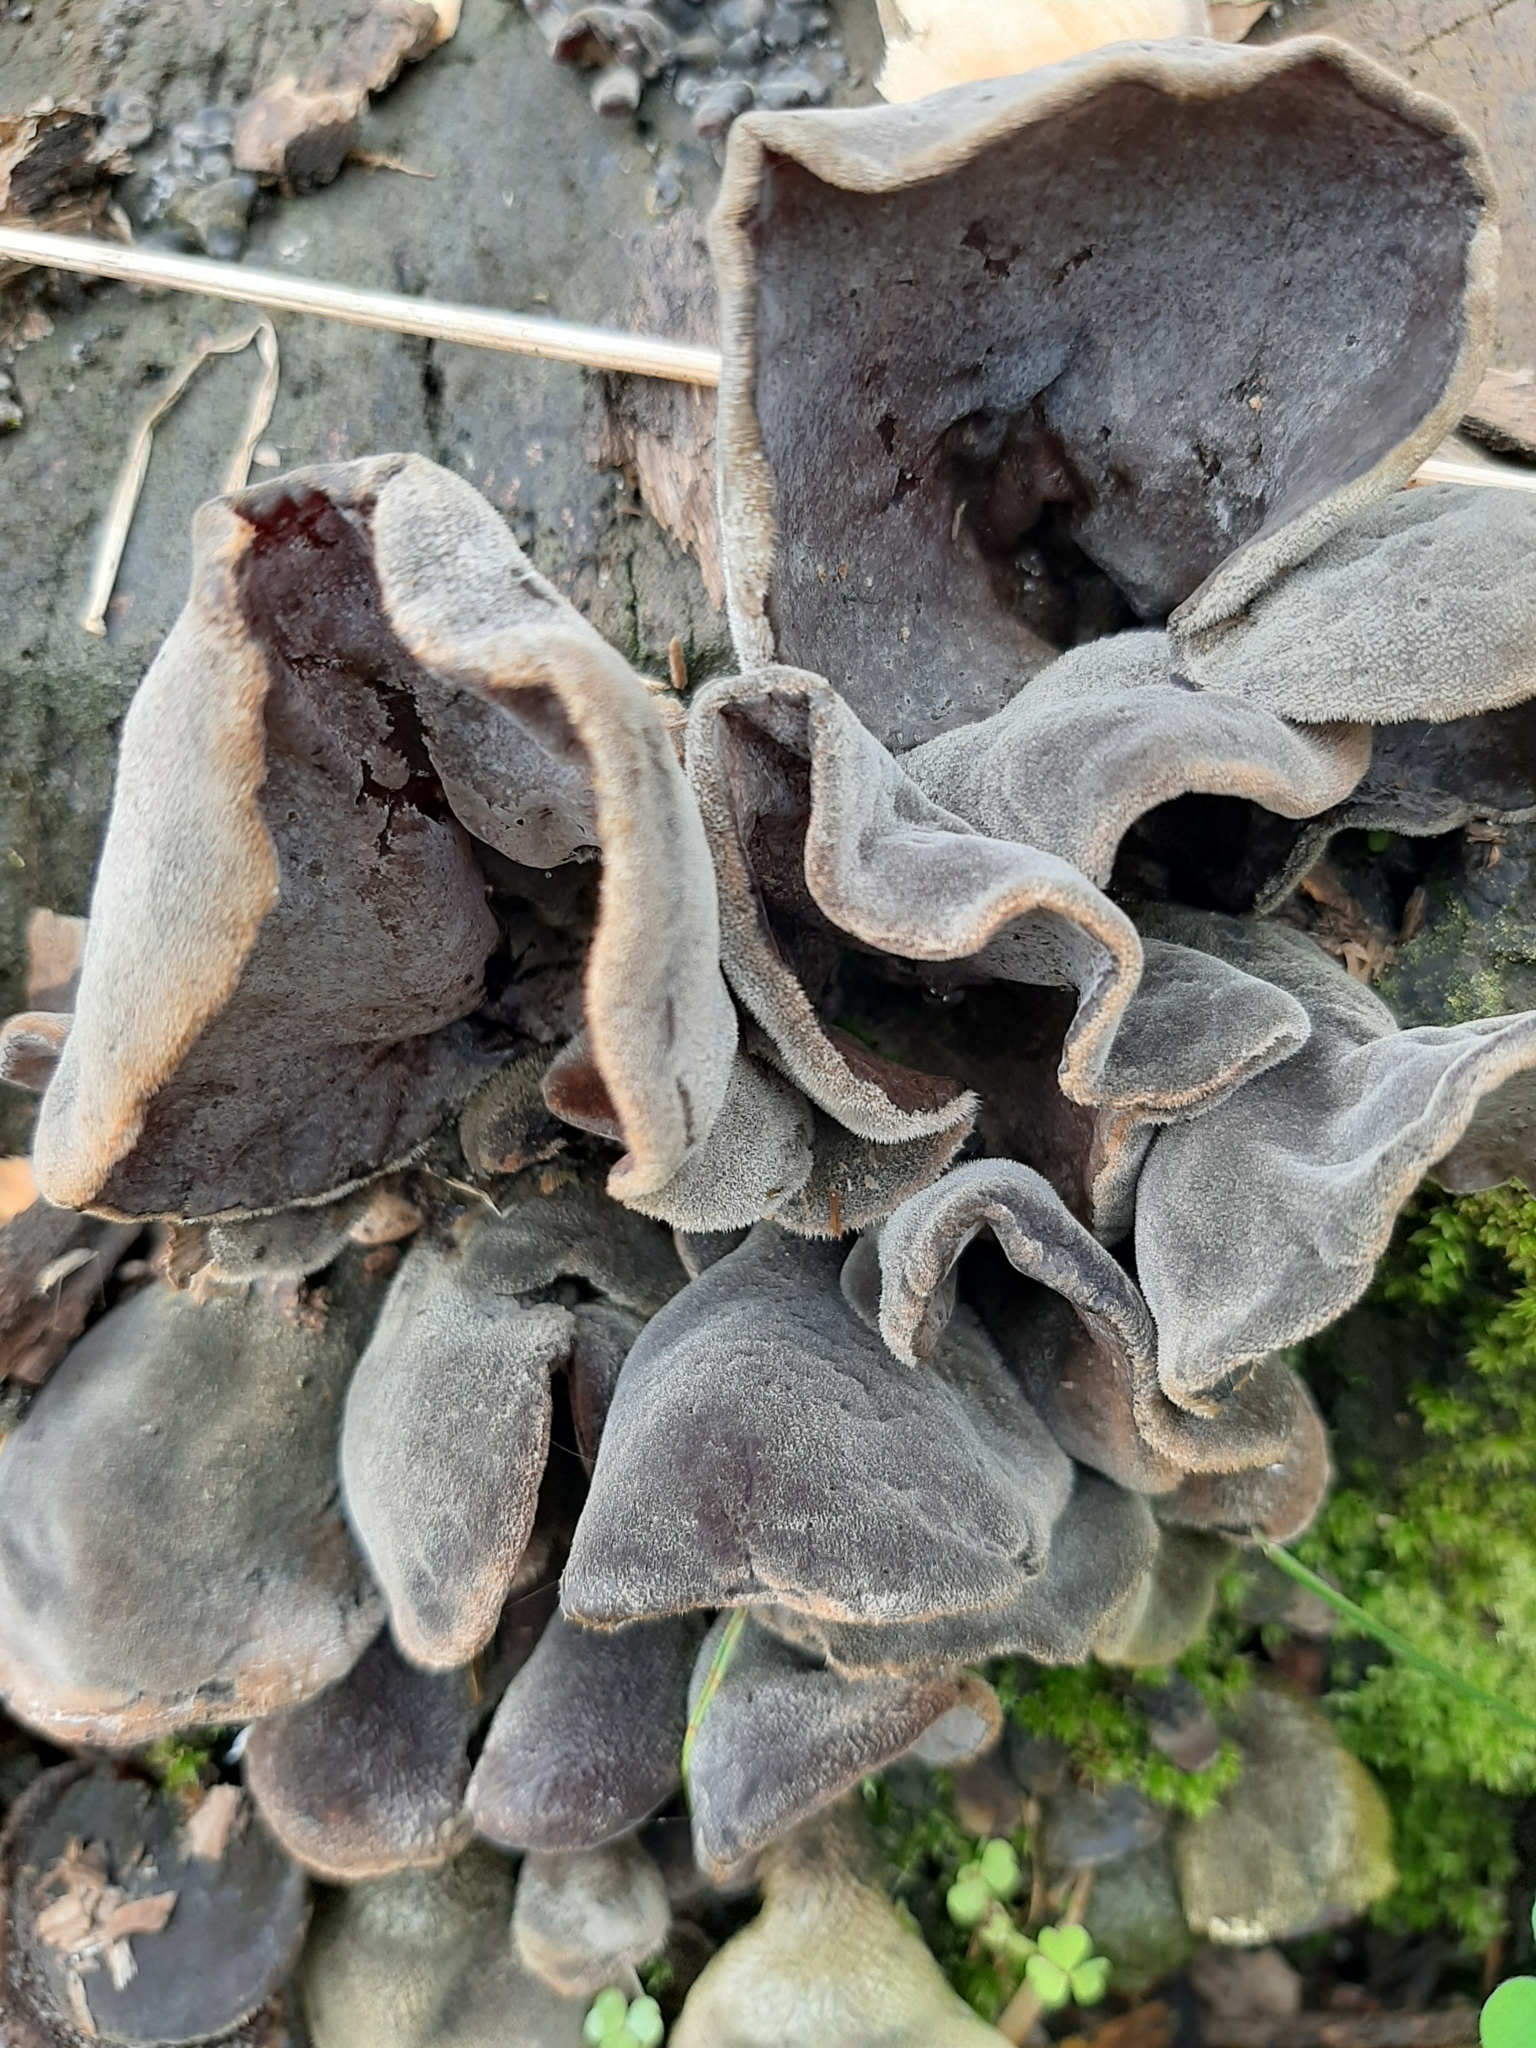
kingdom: Fungi
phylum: Basidiomycota
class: Agaricomycetes
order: Auriculariales
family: Auriculariaceae
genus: Auricularia
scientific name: Auricularia nigricans
